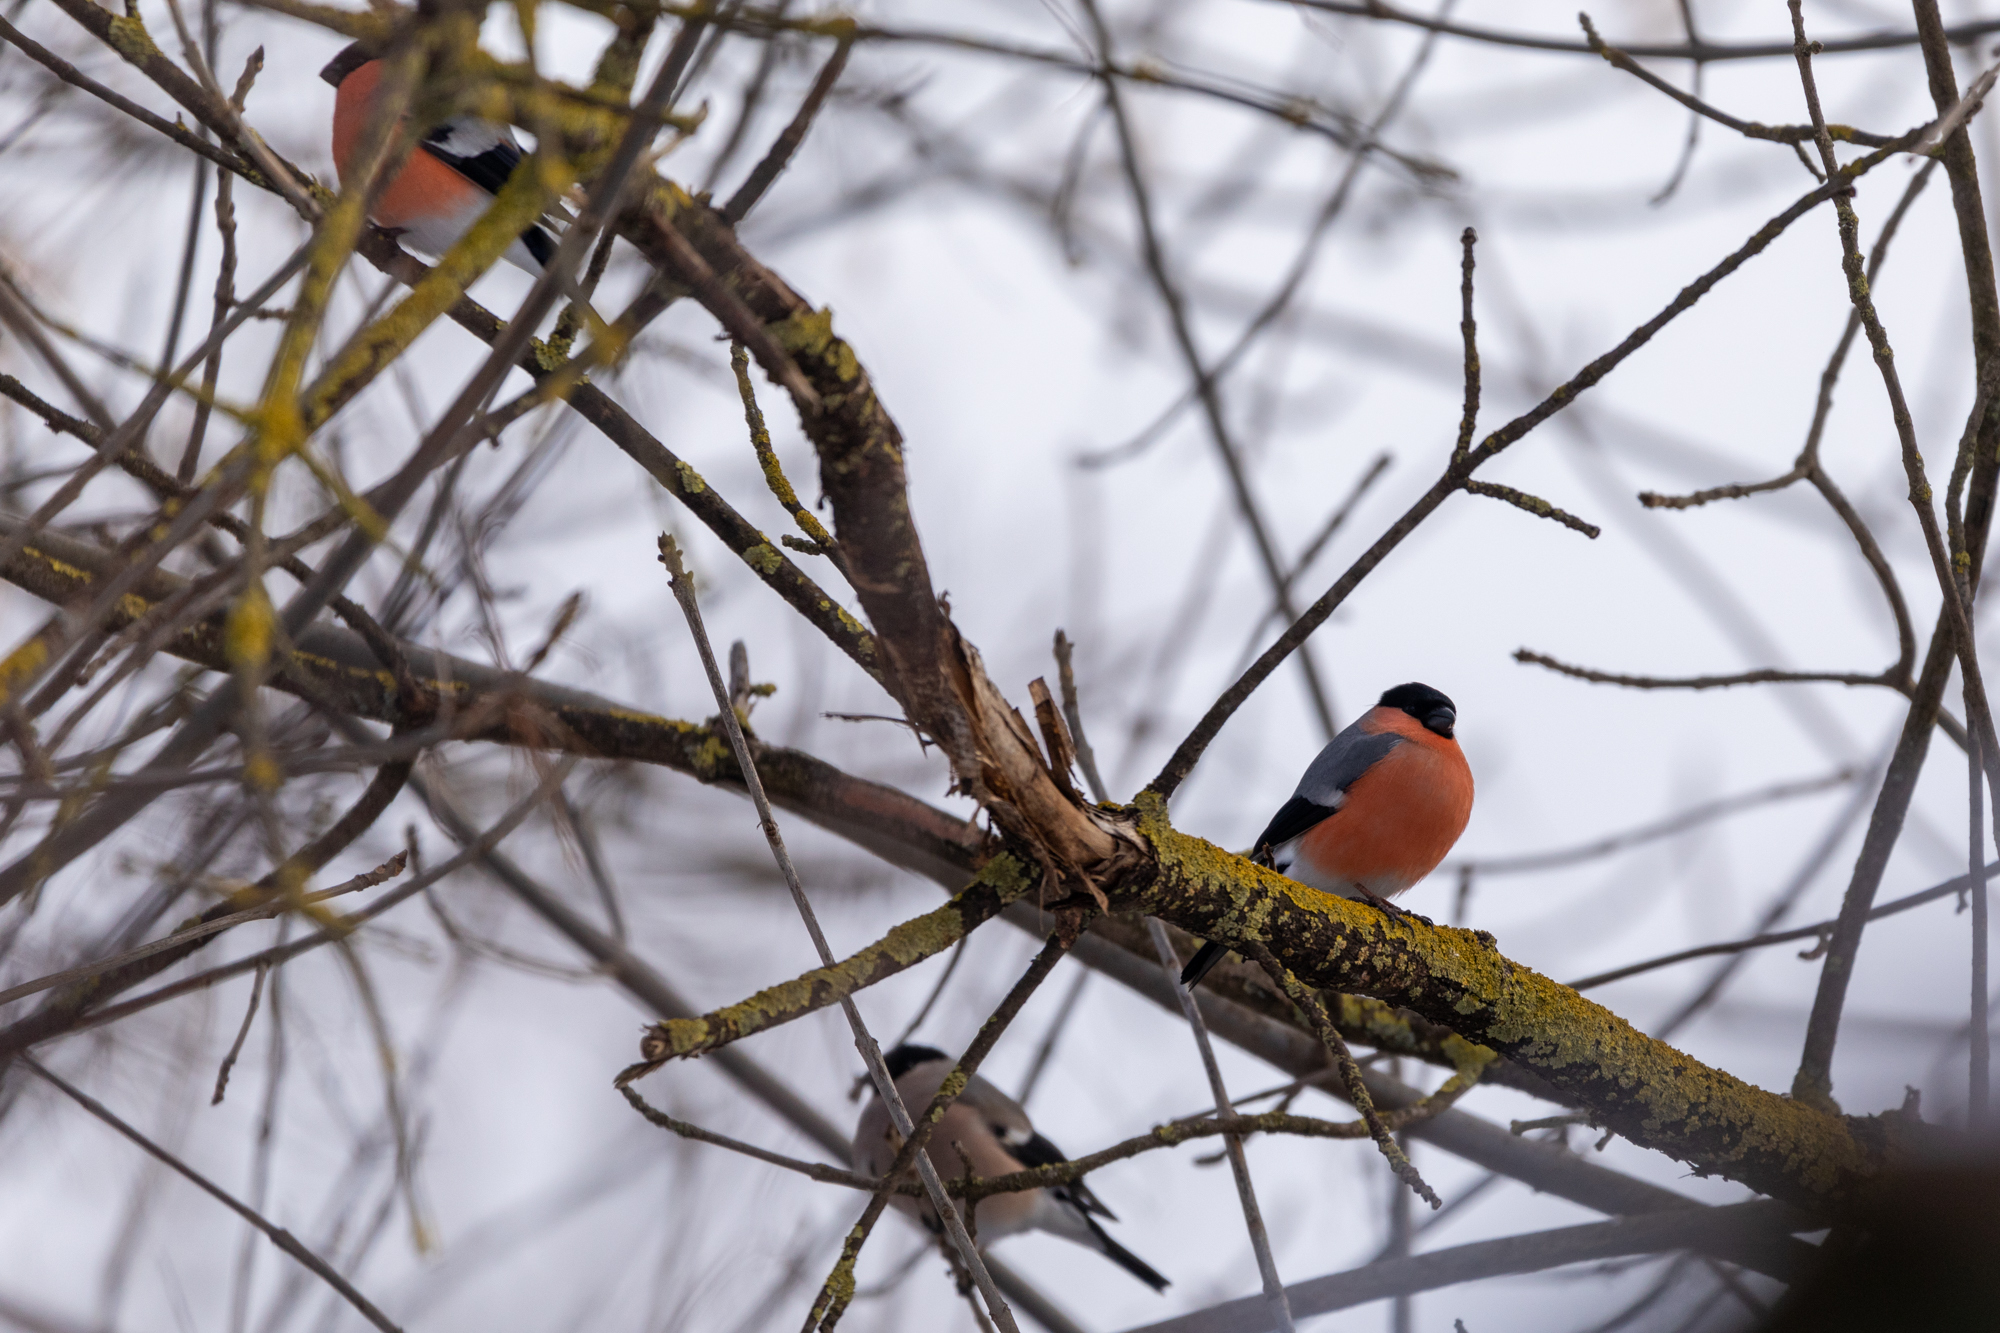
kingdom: Animalia
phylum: Chordata
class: Aves
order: Passeriformes
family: Fringillidae
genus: Pyrrhula
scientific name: Pyrrhula pyrrhula
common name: Eurasian bullfinch
